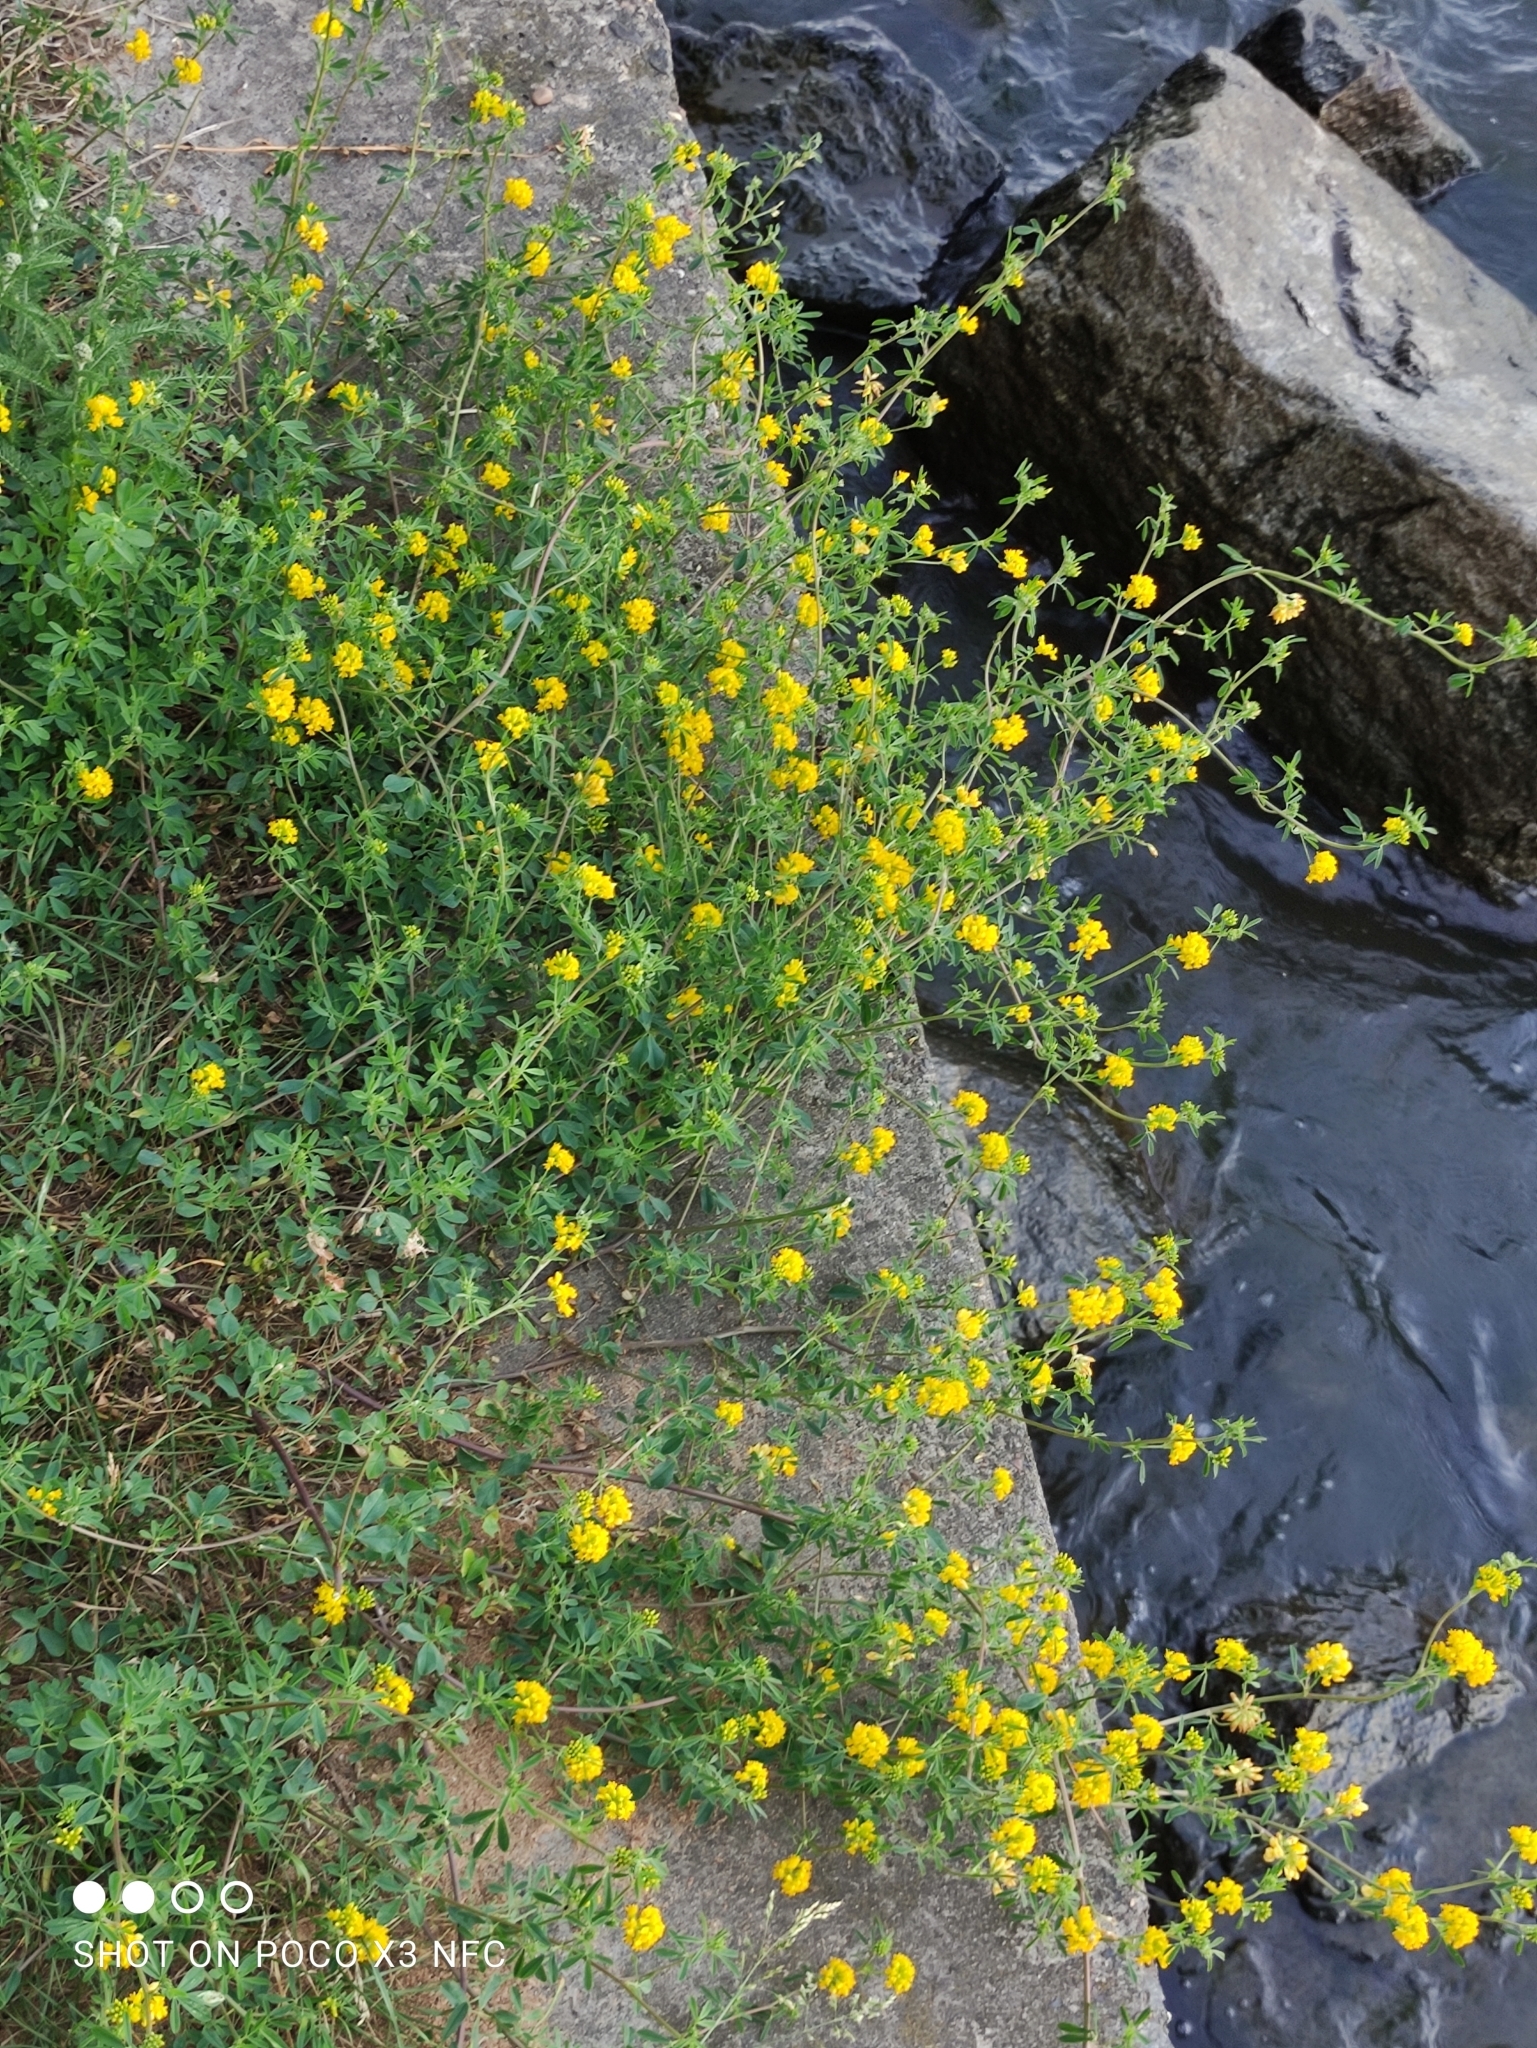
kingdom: Plantae
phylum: Tracheophyta
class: Magnoliopsida
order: Fabales
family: Fabaceae
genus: Medicago
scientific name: Medicago falcata
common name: Sickle medick
